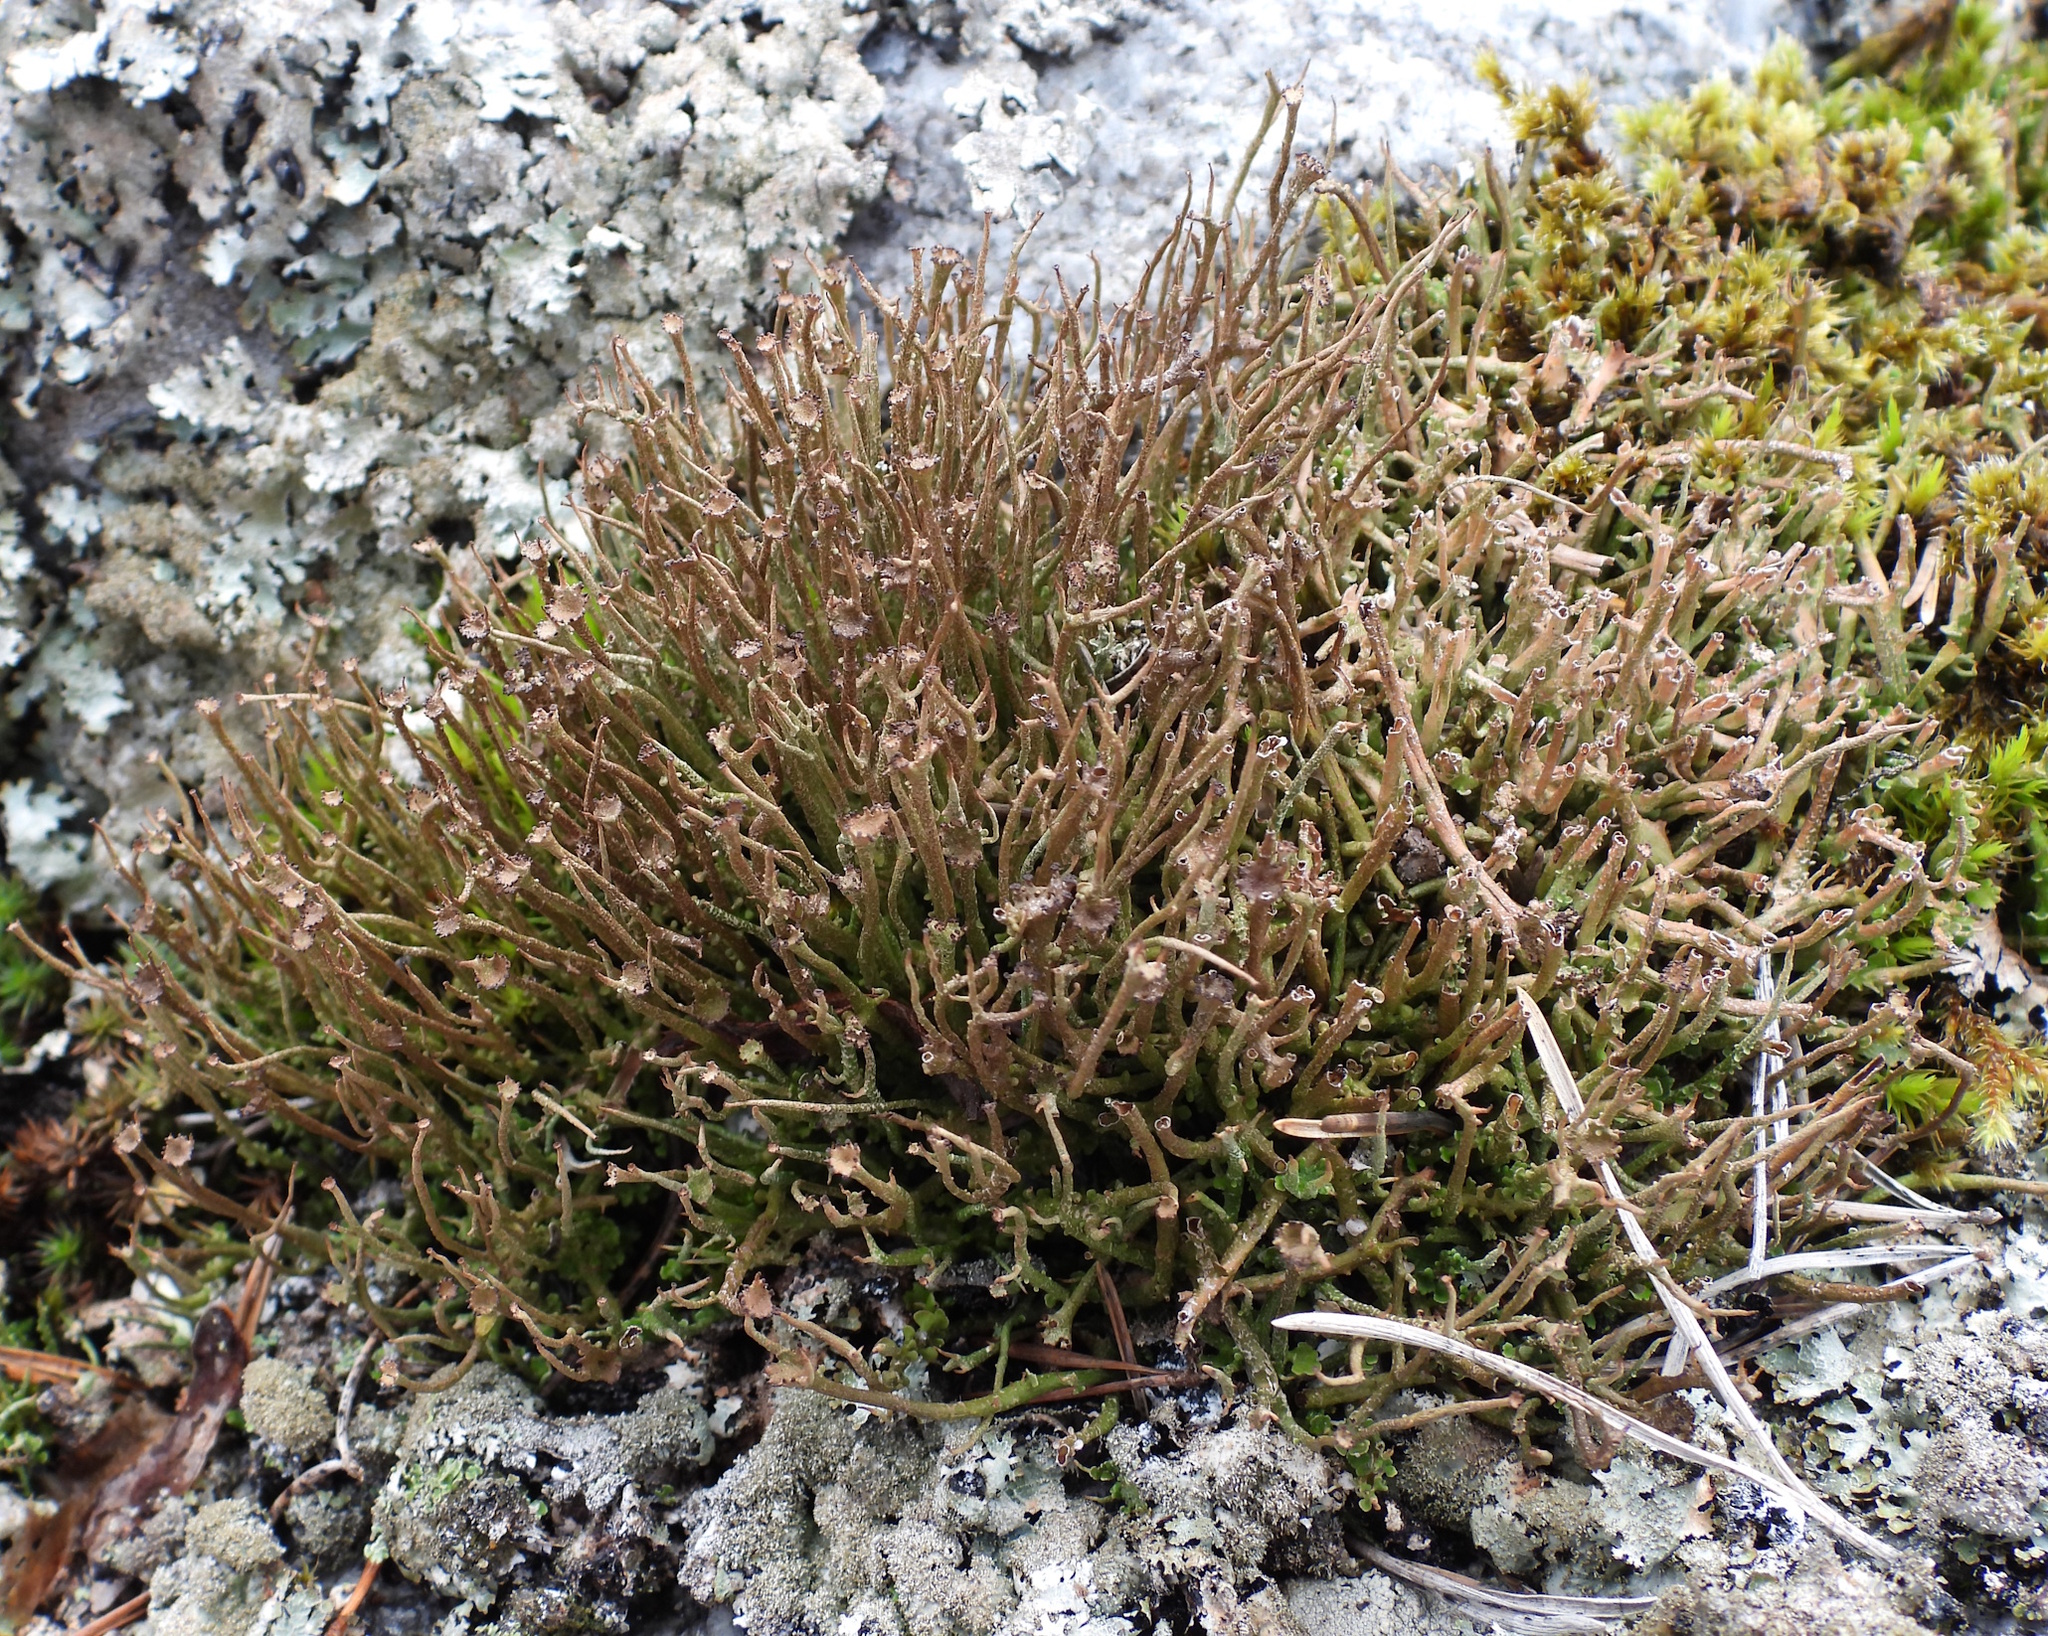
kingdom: Fungi
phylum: Ascomycota
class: Lecanoromycetes
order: Lecanorales
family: Cladoniaceae
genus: Cladonia
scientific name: Cladonia gracilis
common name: Smooth clad lichen
